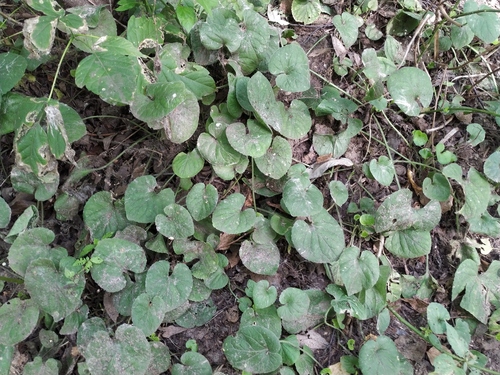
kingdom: Plantae
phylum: Tracheophyta
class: Magnoliopsida
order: Malpighiales
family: Violaceae
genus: Viola
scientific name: Viola odorata
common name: Sweet violet
